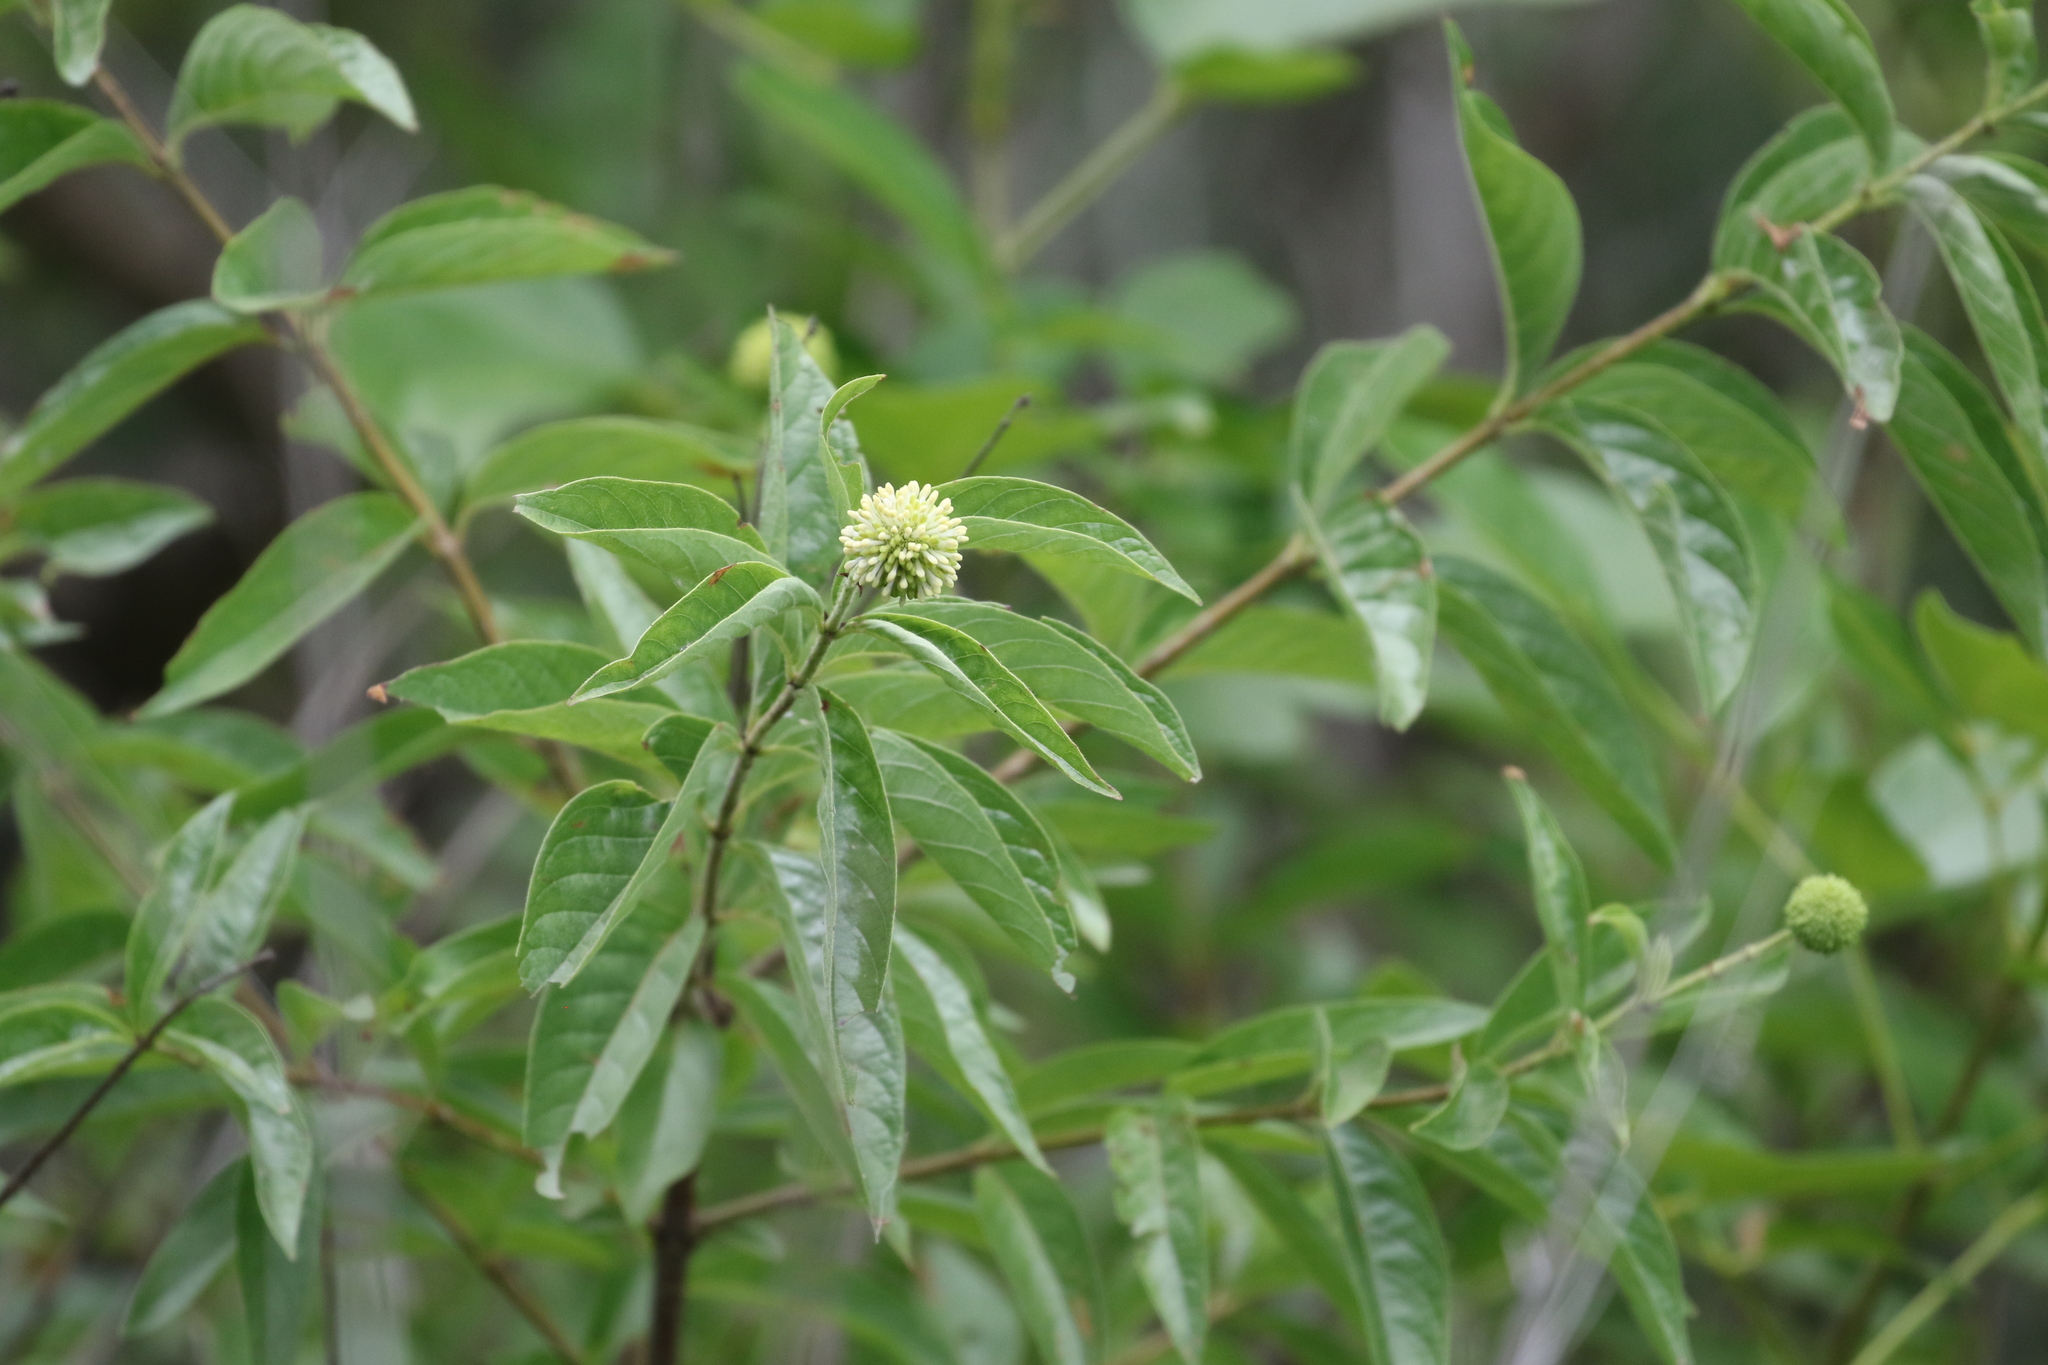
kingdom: Plantae
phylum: Tracheophyta
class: Magnoliopsida
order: Gentianales
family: Rubiaceae
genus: Cephalanthus
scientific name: Cephalanthus occidentalis
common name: Button-willow
